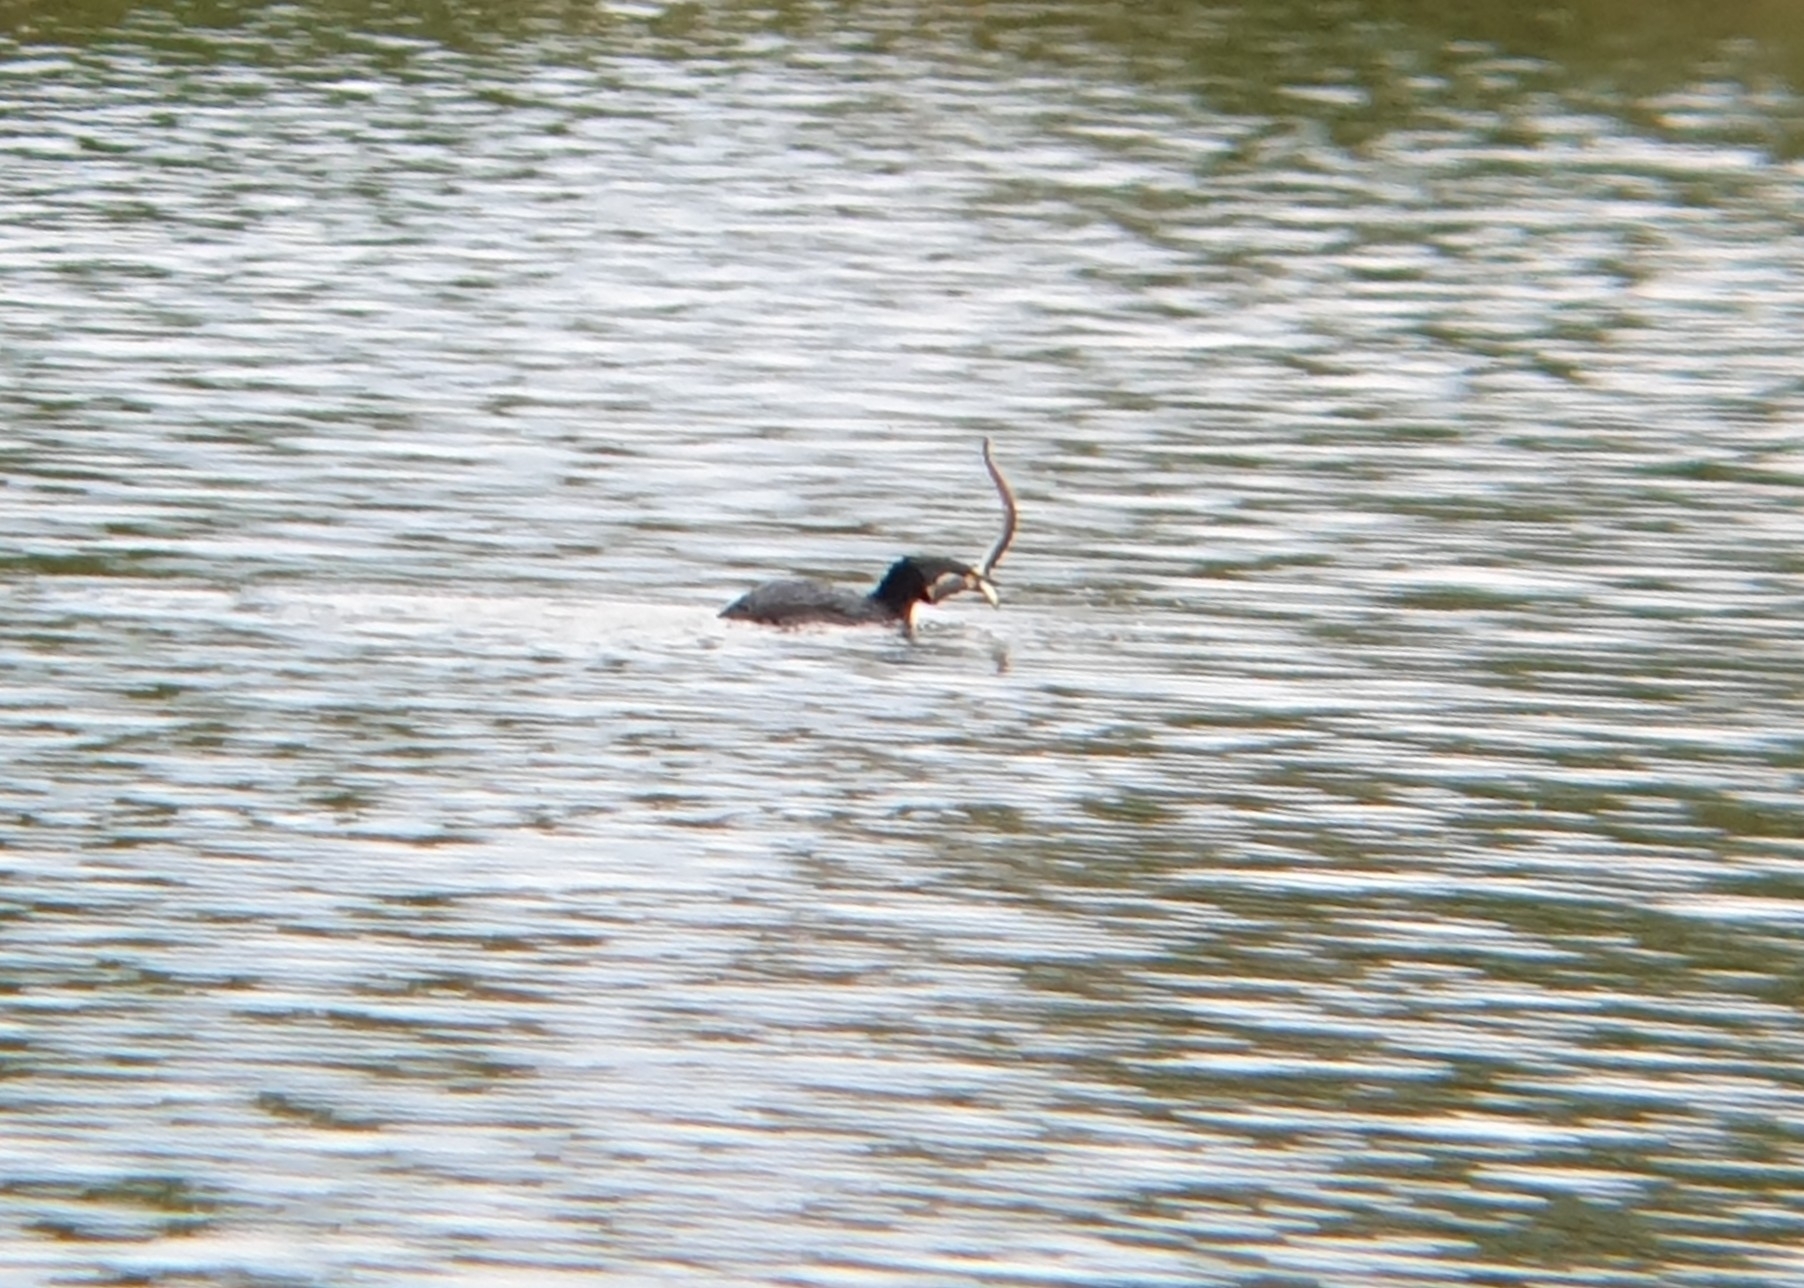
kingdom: Animalia
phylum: Chordata
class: Aves
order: Podicipediformes
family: Podicipedidae
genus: Podiceps
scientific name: Podiceps grisegena
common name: Red-necked grebe
